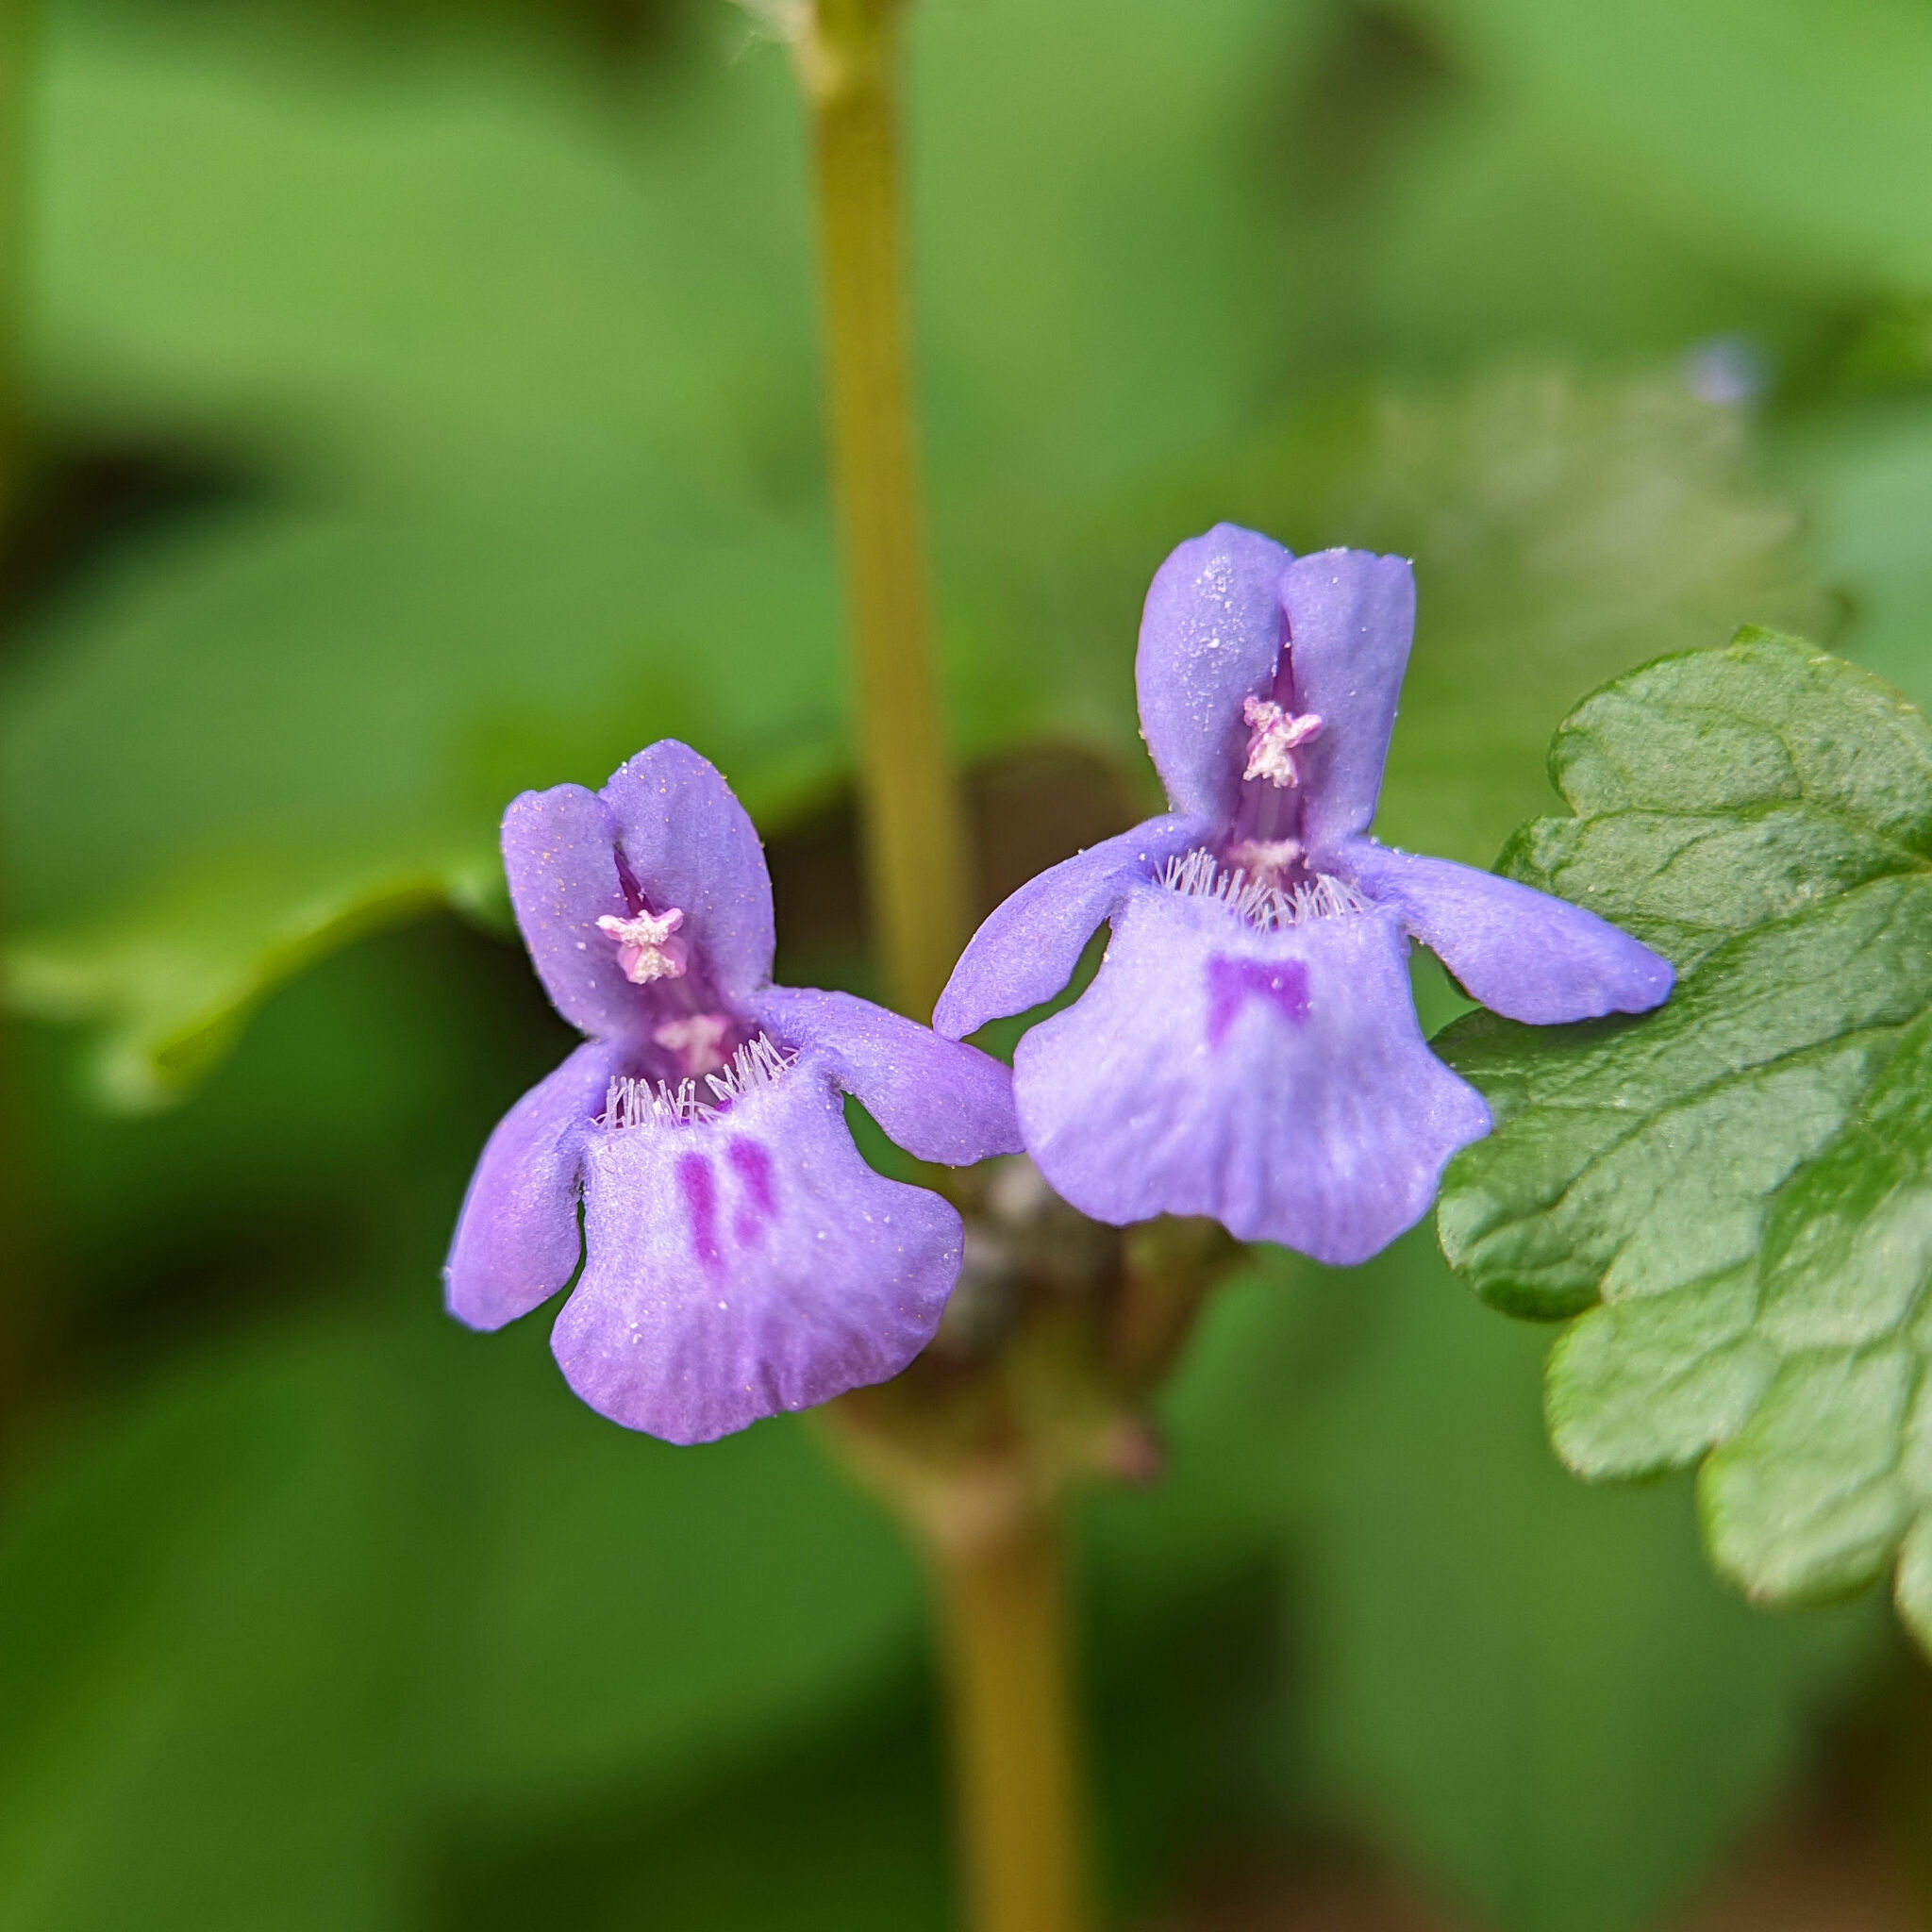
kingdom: Plantae
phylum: Tracheophyta
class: Magnoliopsida
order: Lamiales
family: Lamiaceae
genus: Glechoma
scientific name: Glechoma hederacea
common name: Ground ivy
